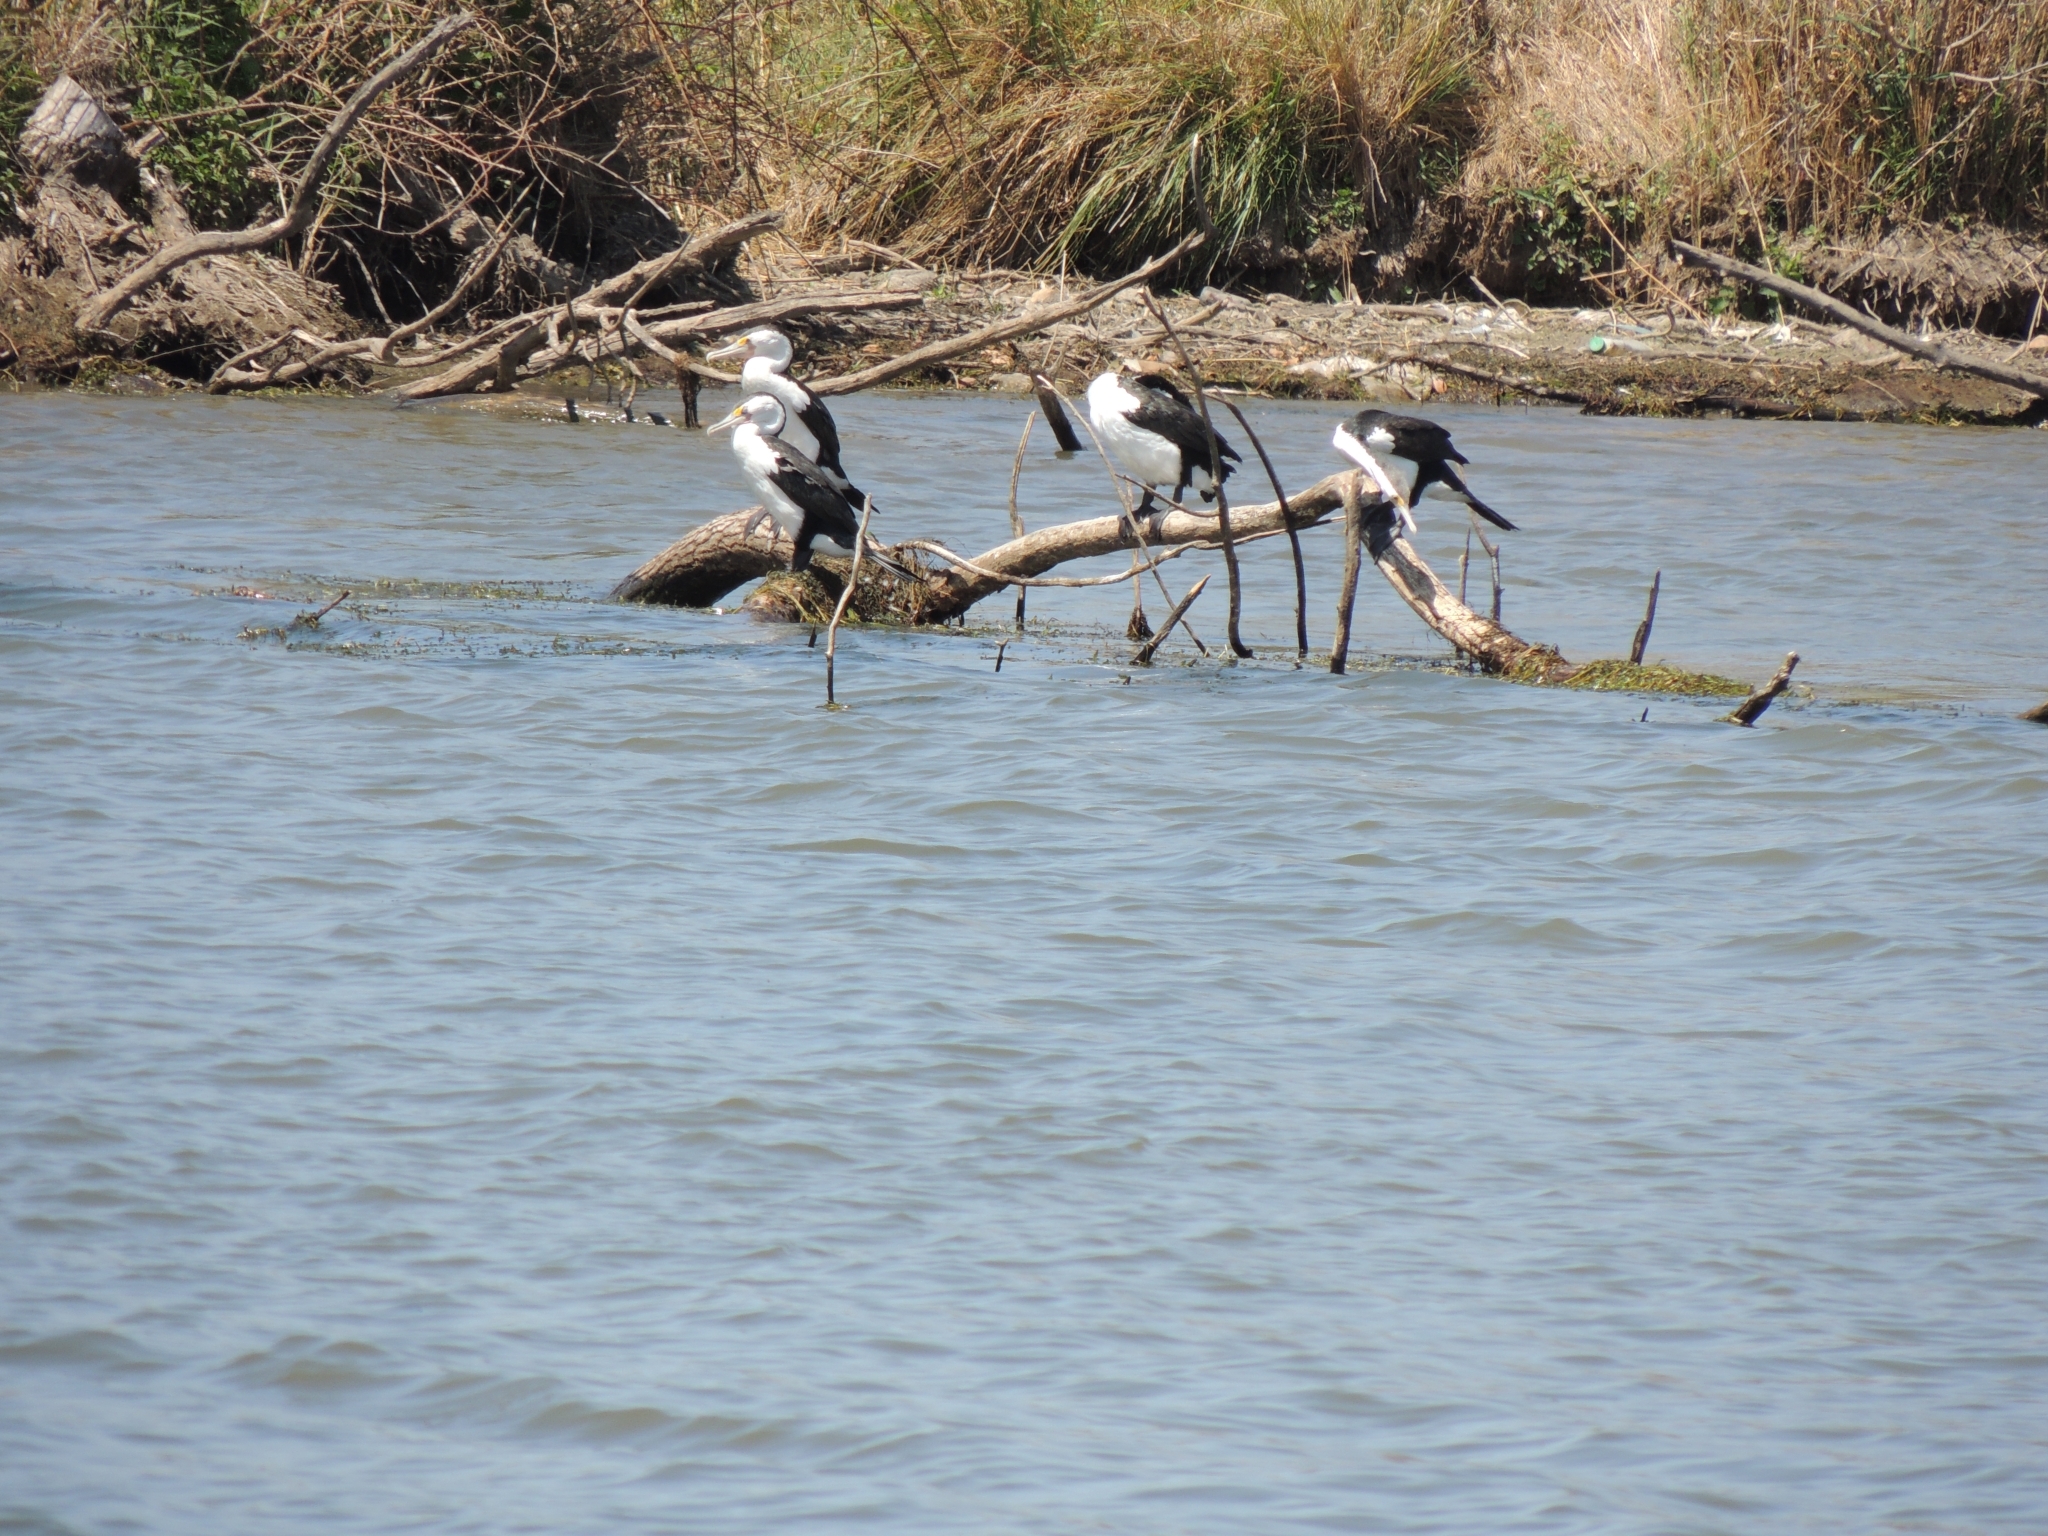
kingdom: Animalia
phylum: Chordata
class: Aves
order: Suliformes
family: Phalacrocoracidae
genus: Phalacrocorax
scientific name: Phalacrocorax varius
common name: Pied cormorant
